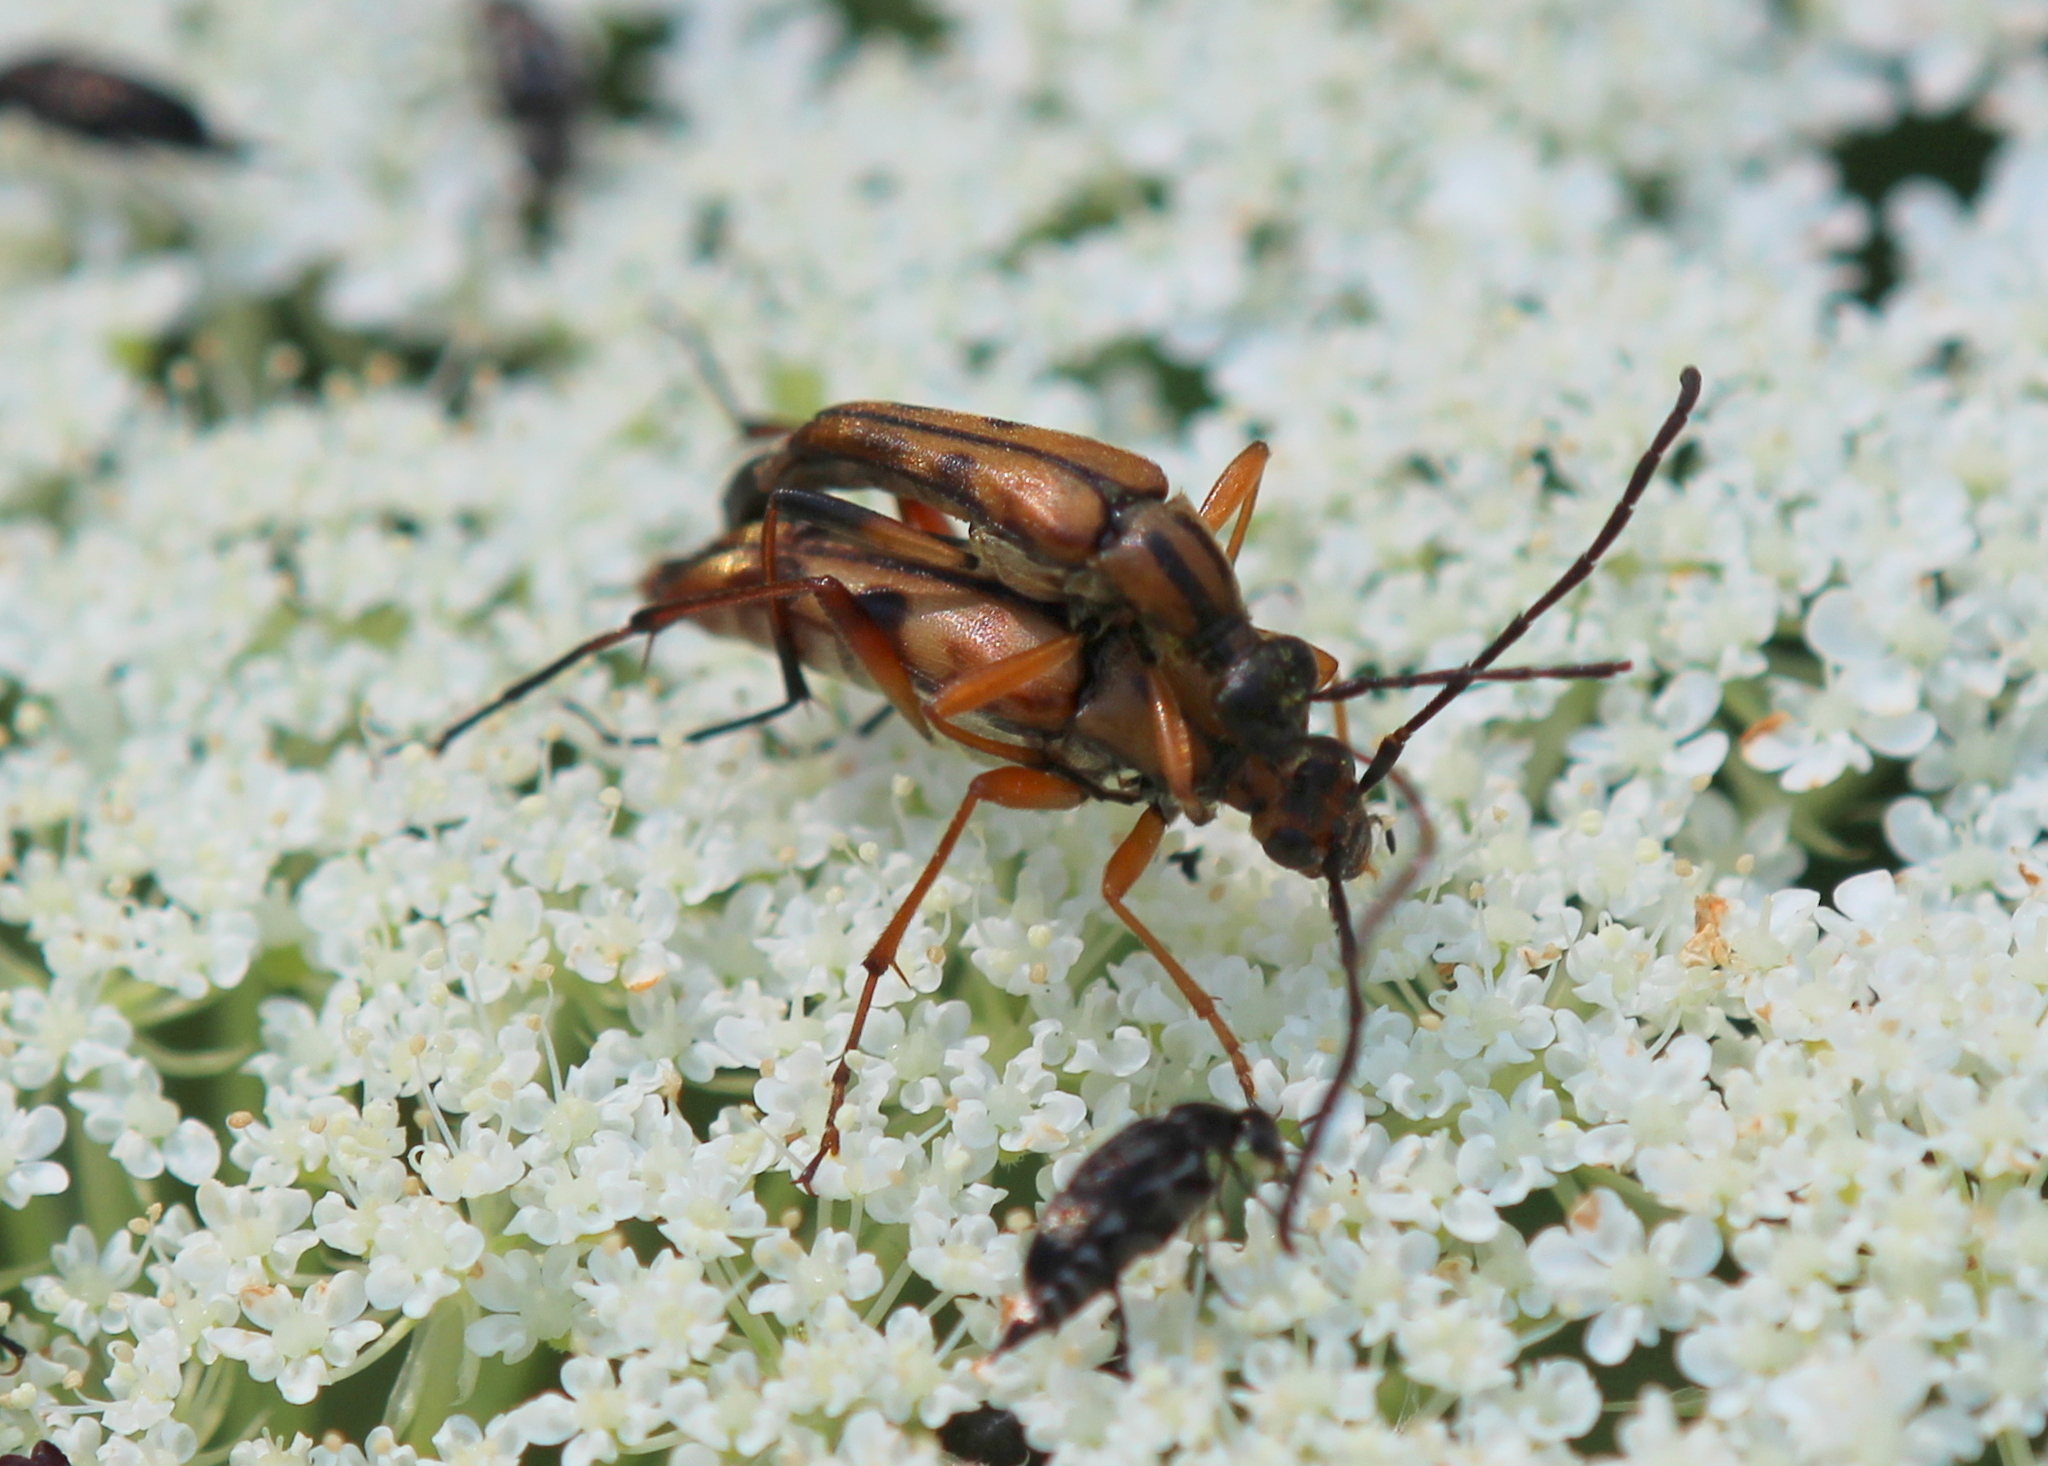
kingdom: Animalia
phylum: Arthropoda
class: Insecta
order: Coleoptera
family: Cerambycidae
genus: Strangalia
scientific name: Strangalia famelica
